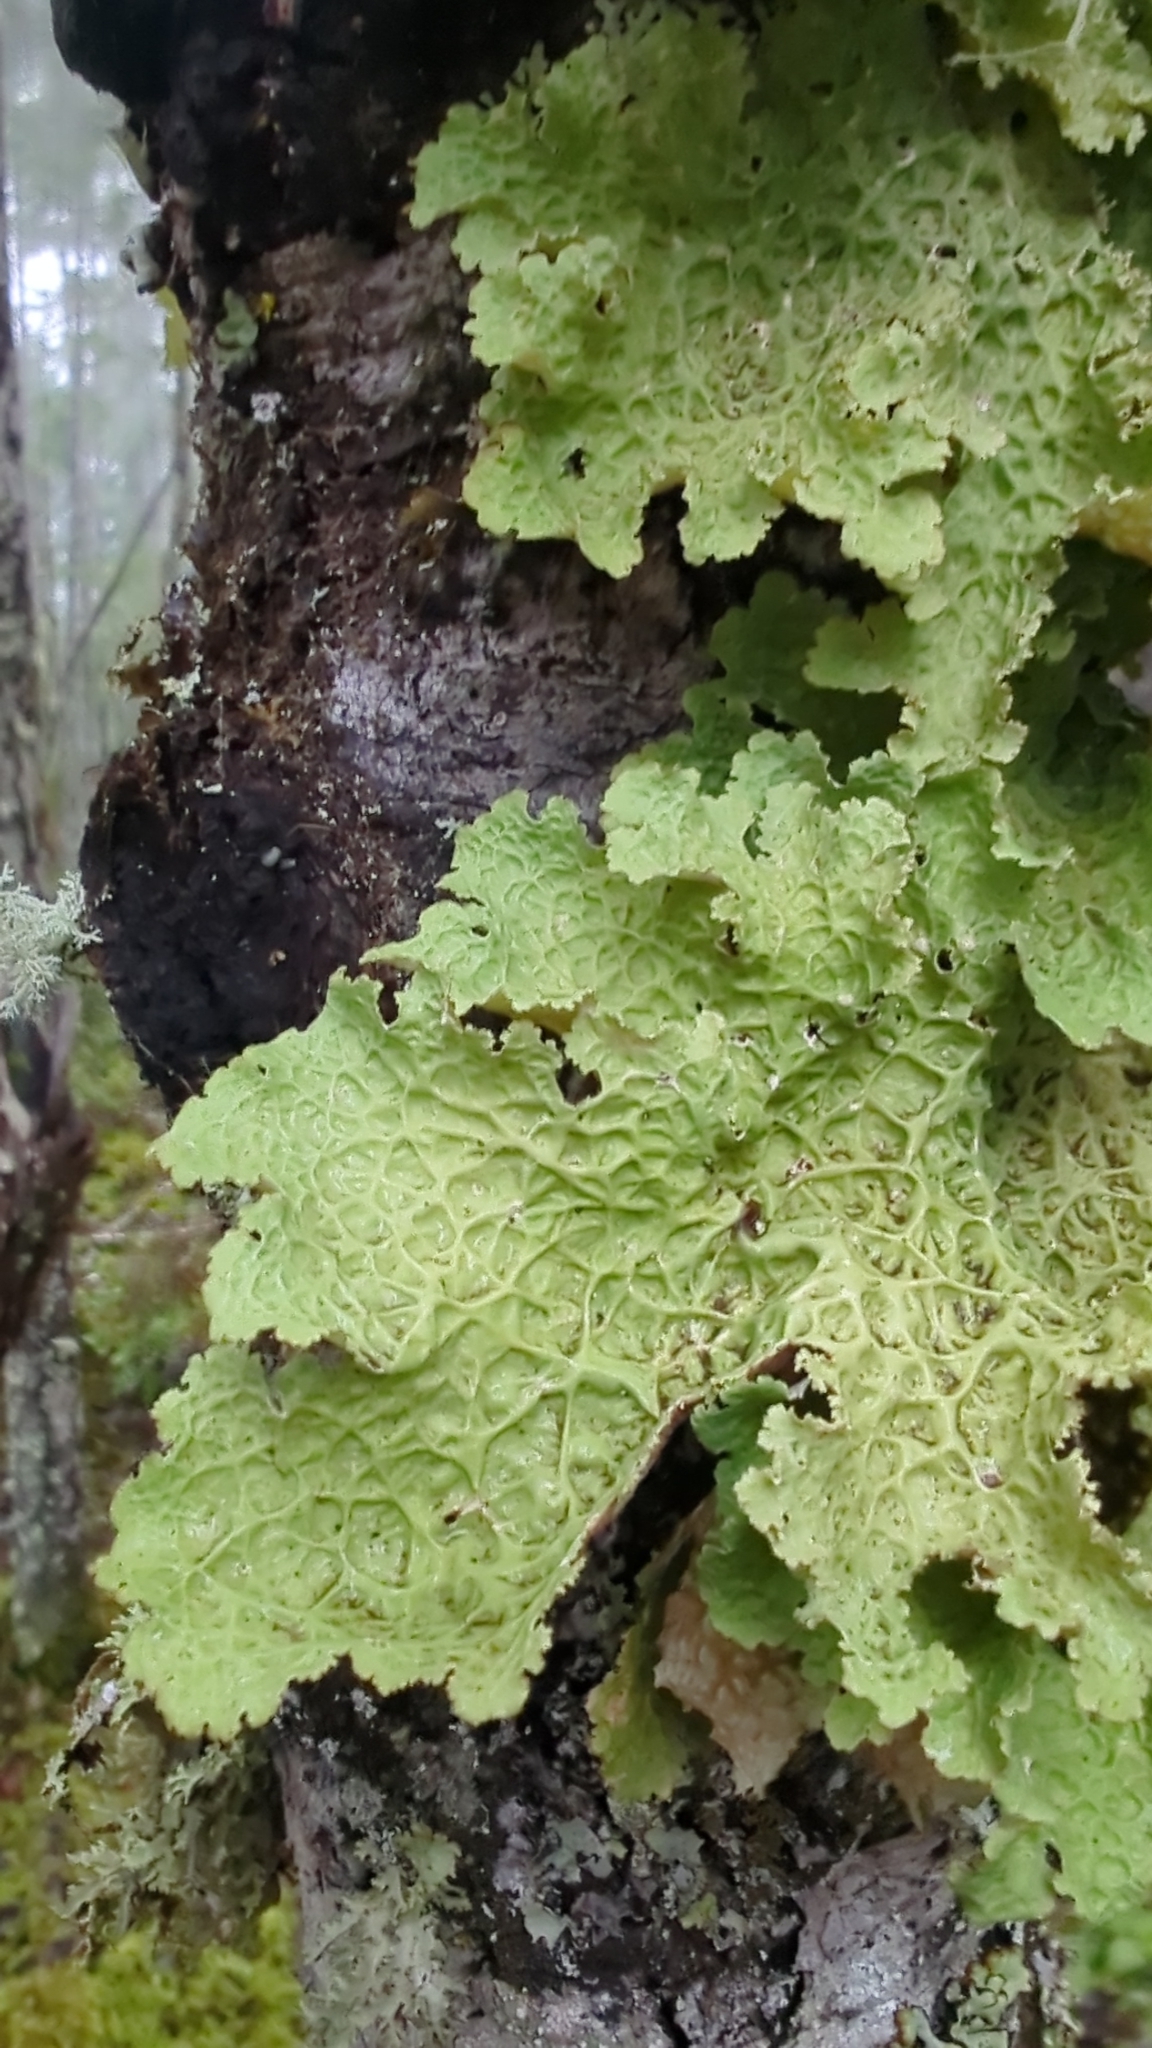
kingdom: Fungi
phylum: Ascomycota
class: Lecanoromycetes
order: Peltigerales
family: Lobariaceae
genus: Lobaria
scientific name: Lobaria oregana
